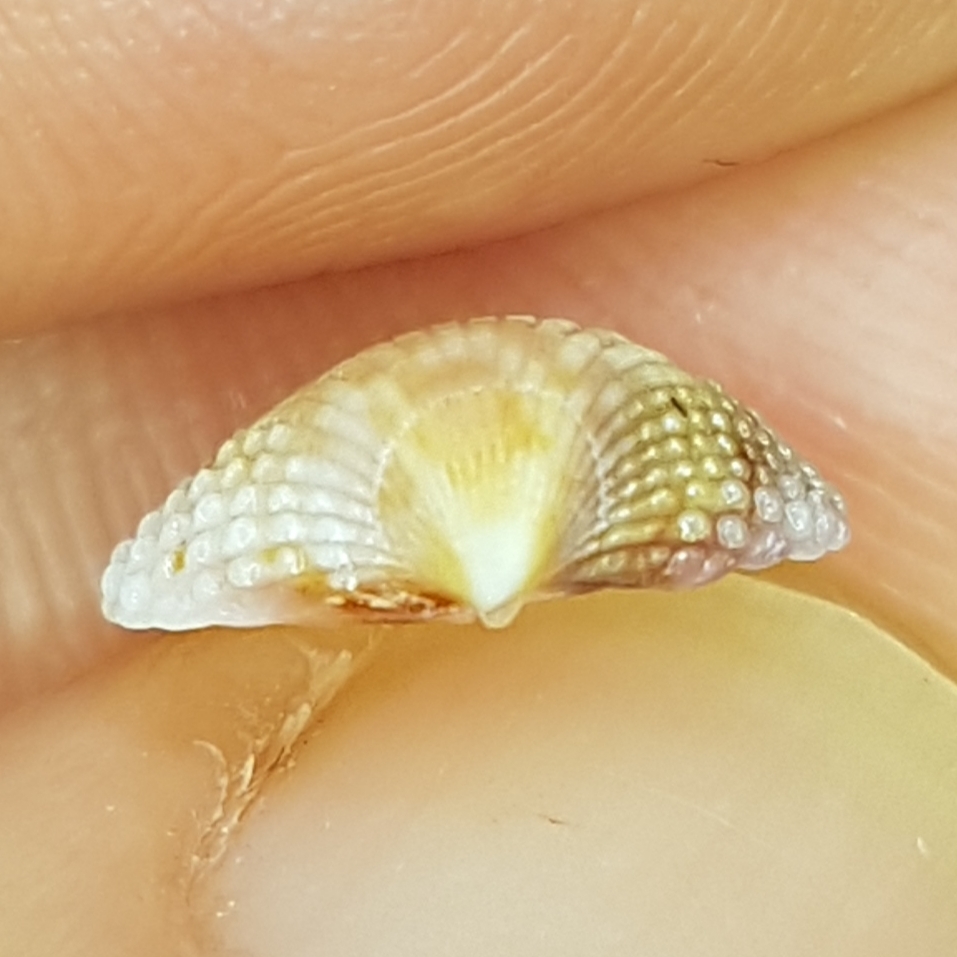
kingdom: Animalia
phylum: Mollusca
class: Bivalvia
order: Cardiida
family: Cardiidae
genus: Papillicardium
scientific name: Papillicardium papillosum
